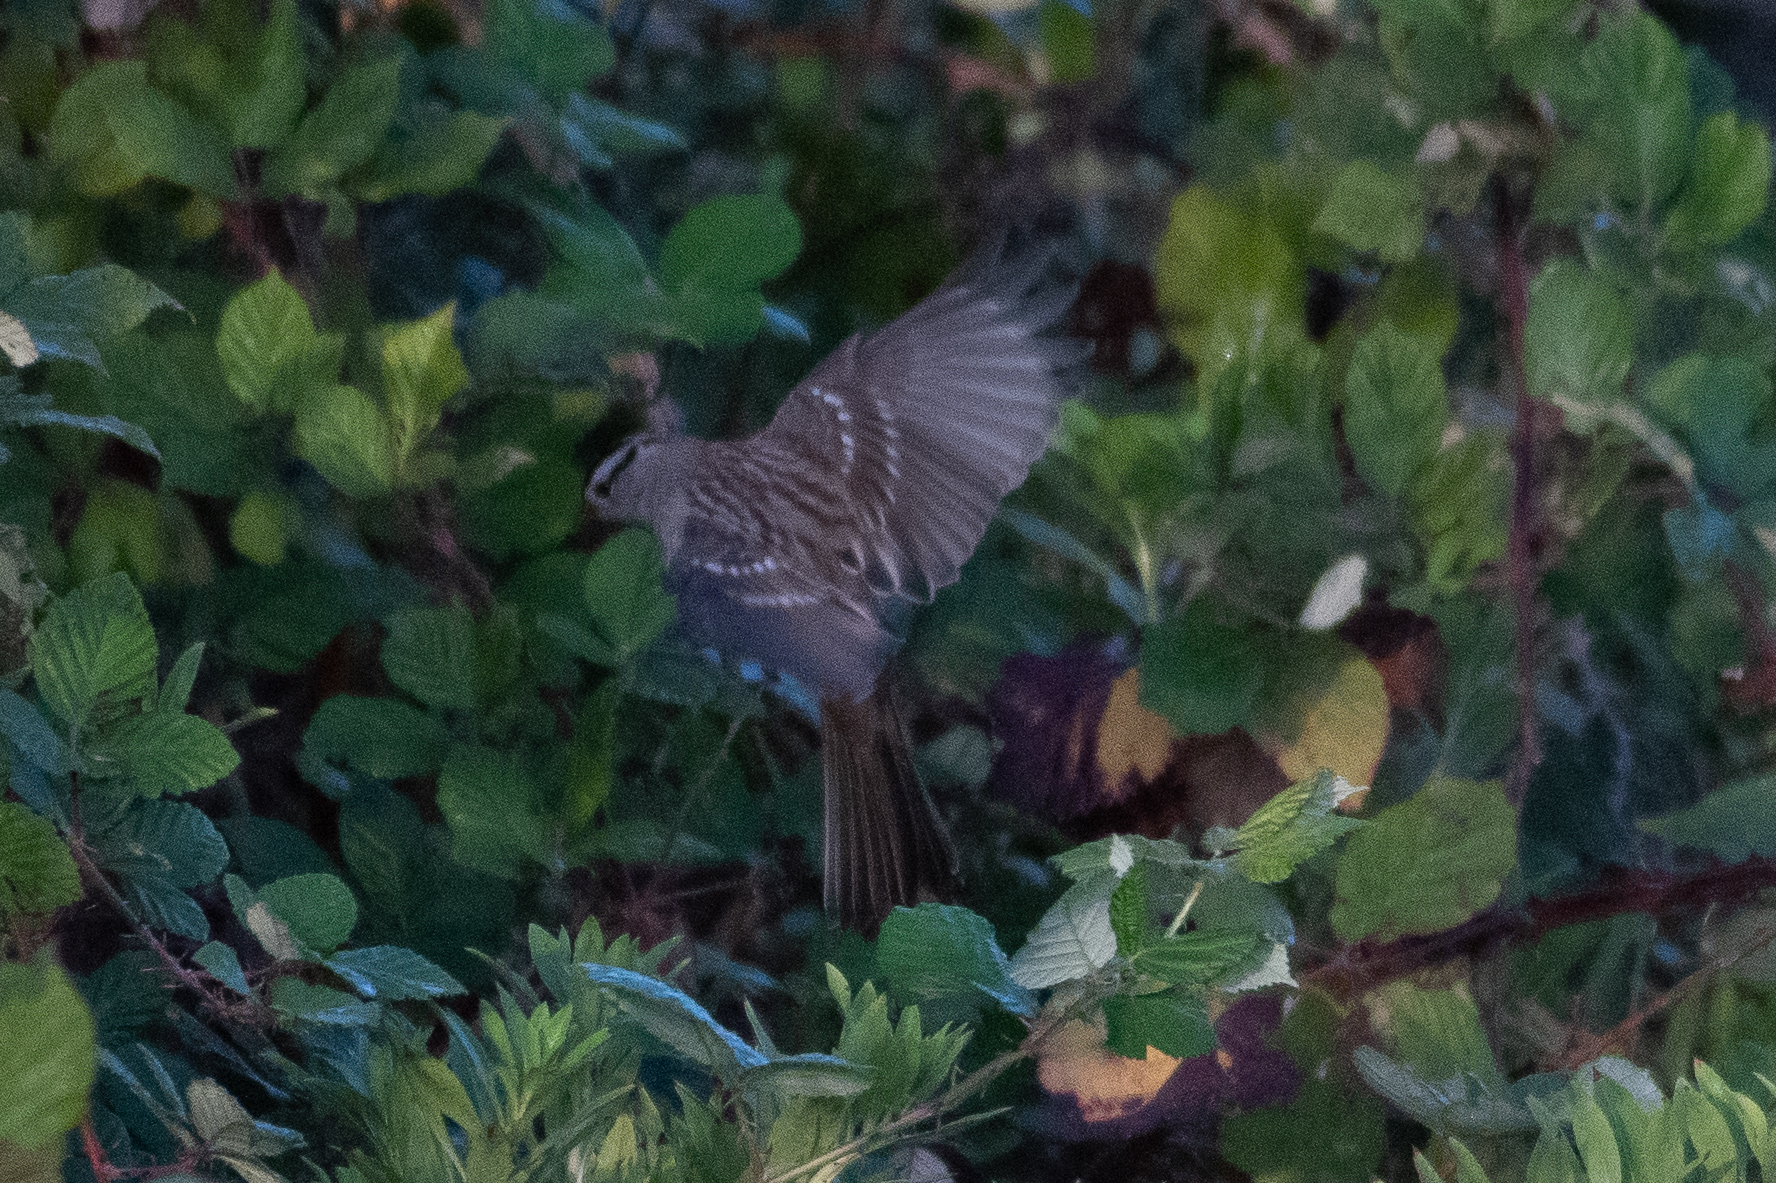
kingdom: Animalia
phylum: Chordata
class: Aves
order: Passeriformes
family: Passerellidae
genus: Zonotrichia
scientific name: Zonotrichia leucophrys
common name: White-crowned sparrow
